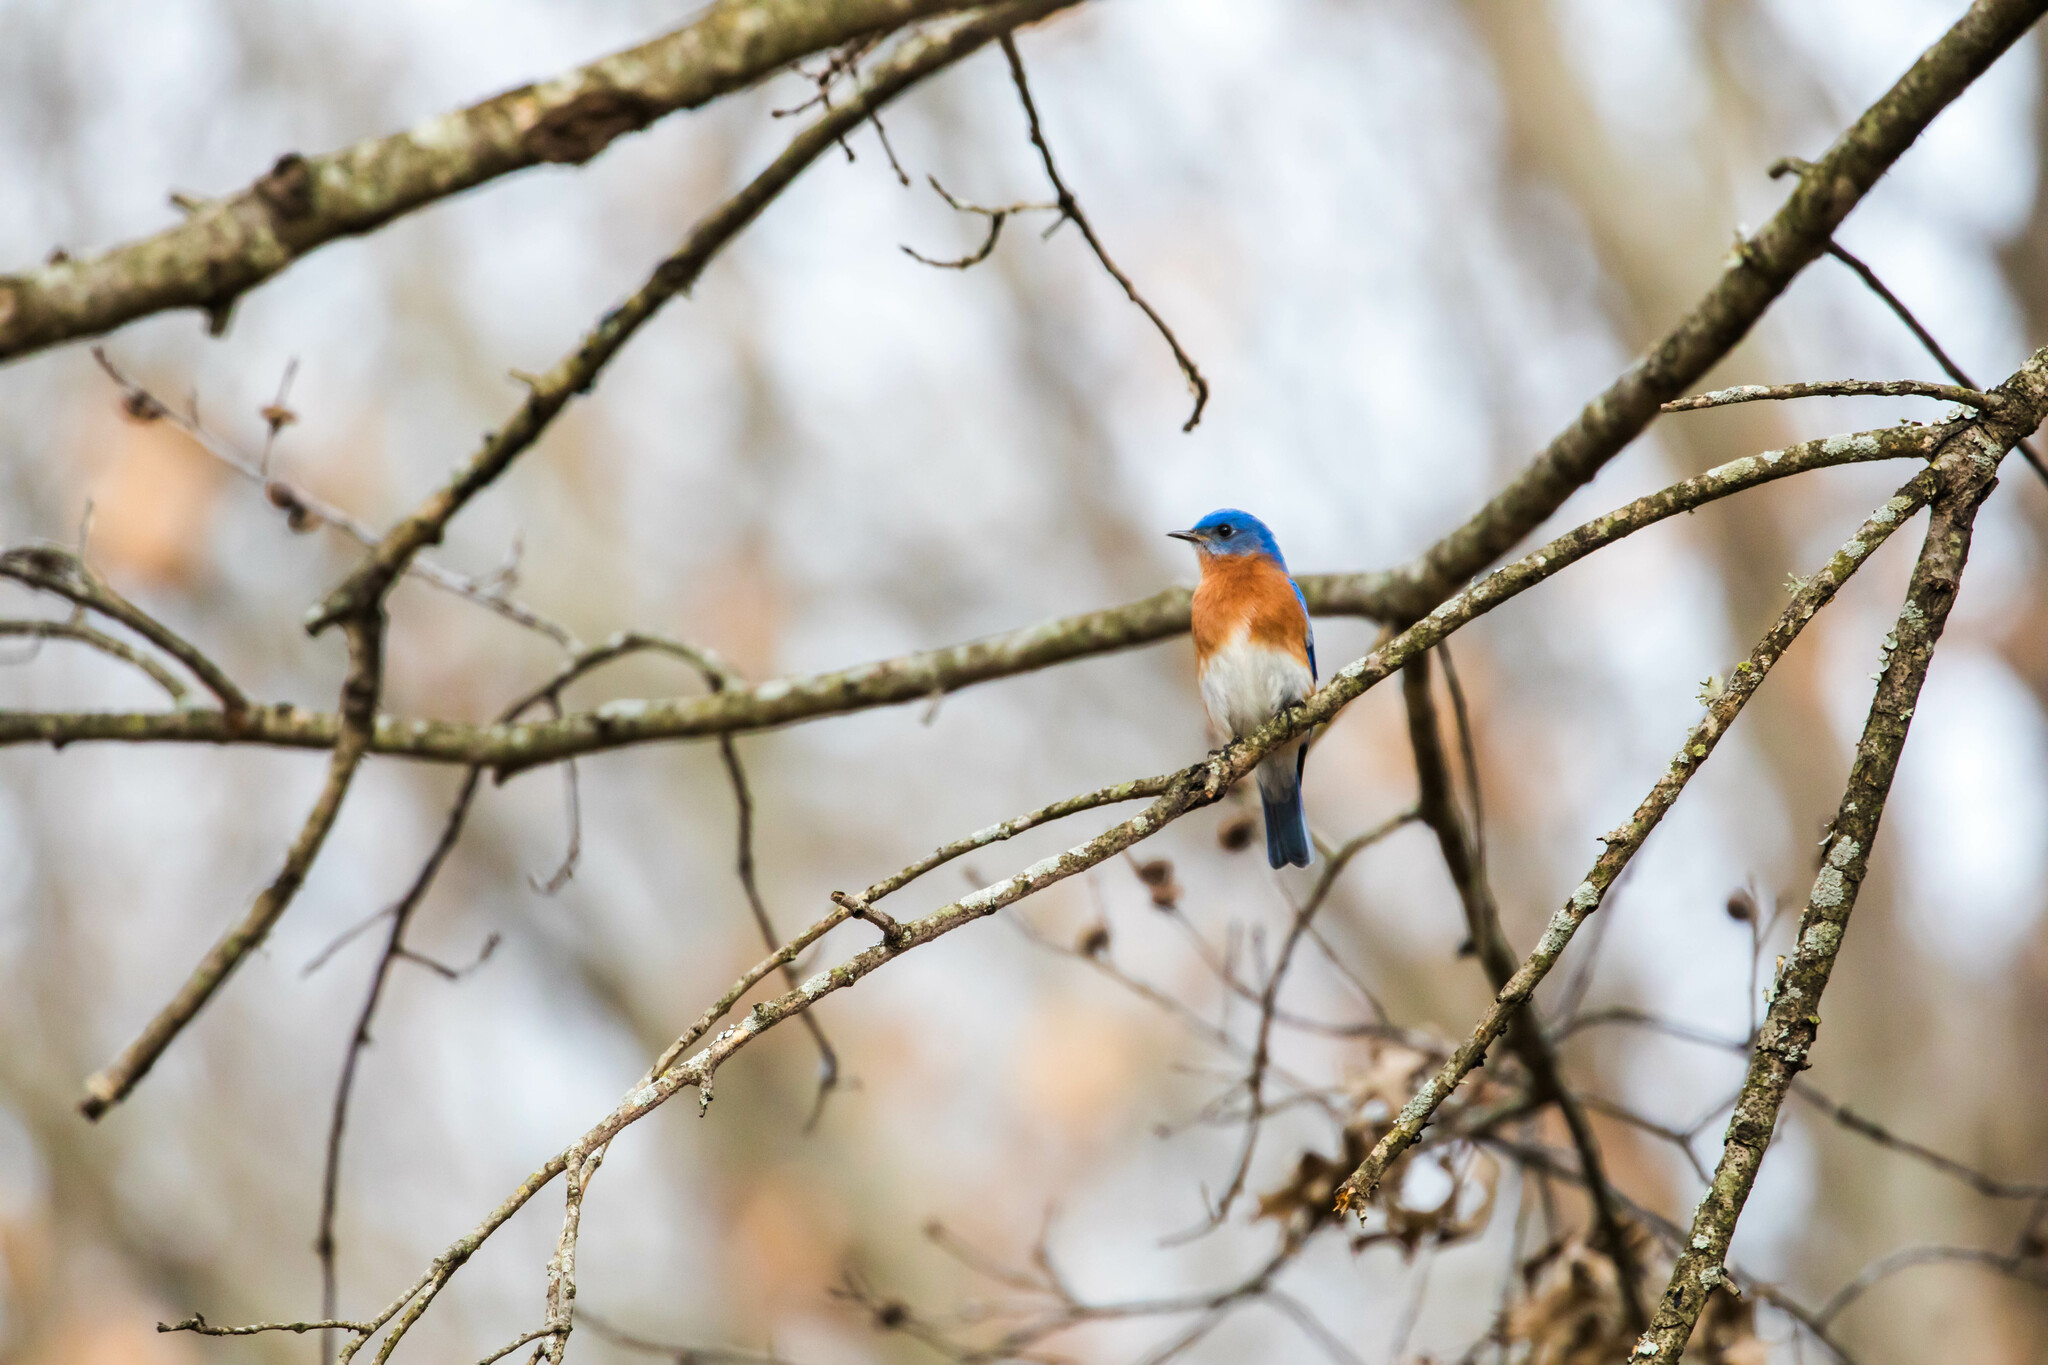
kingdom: Animalia
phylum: Chordata
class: Aves
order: Passeriformes
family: Turdidae
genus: Sialia
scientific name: Sialia sialis
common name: Eastern bluebird
